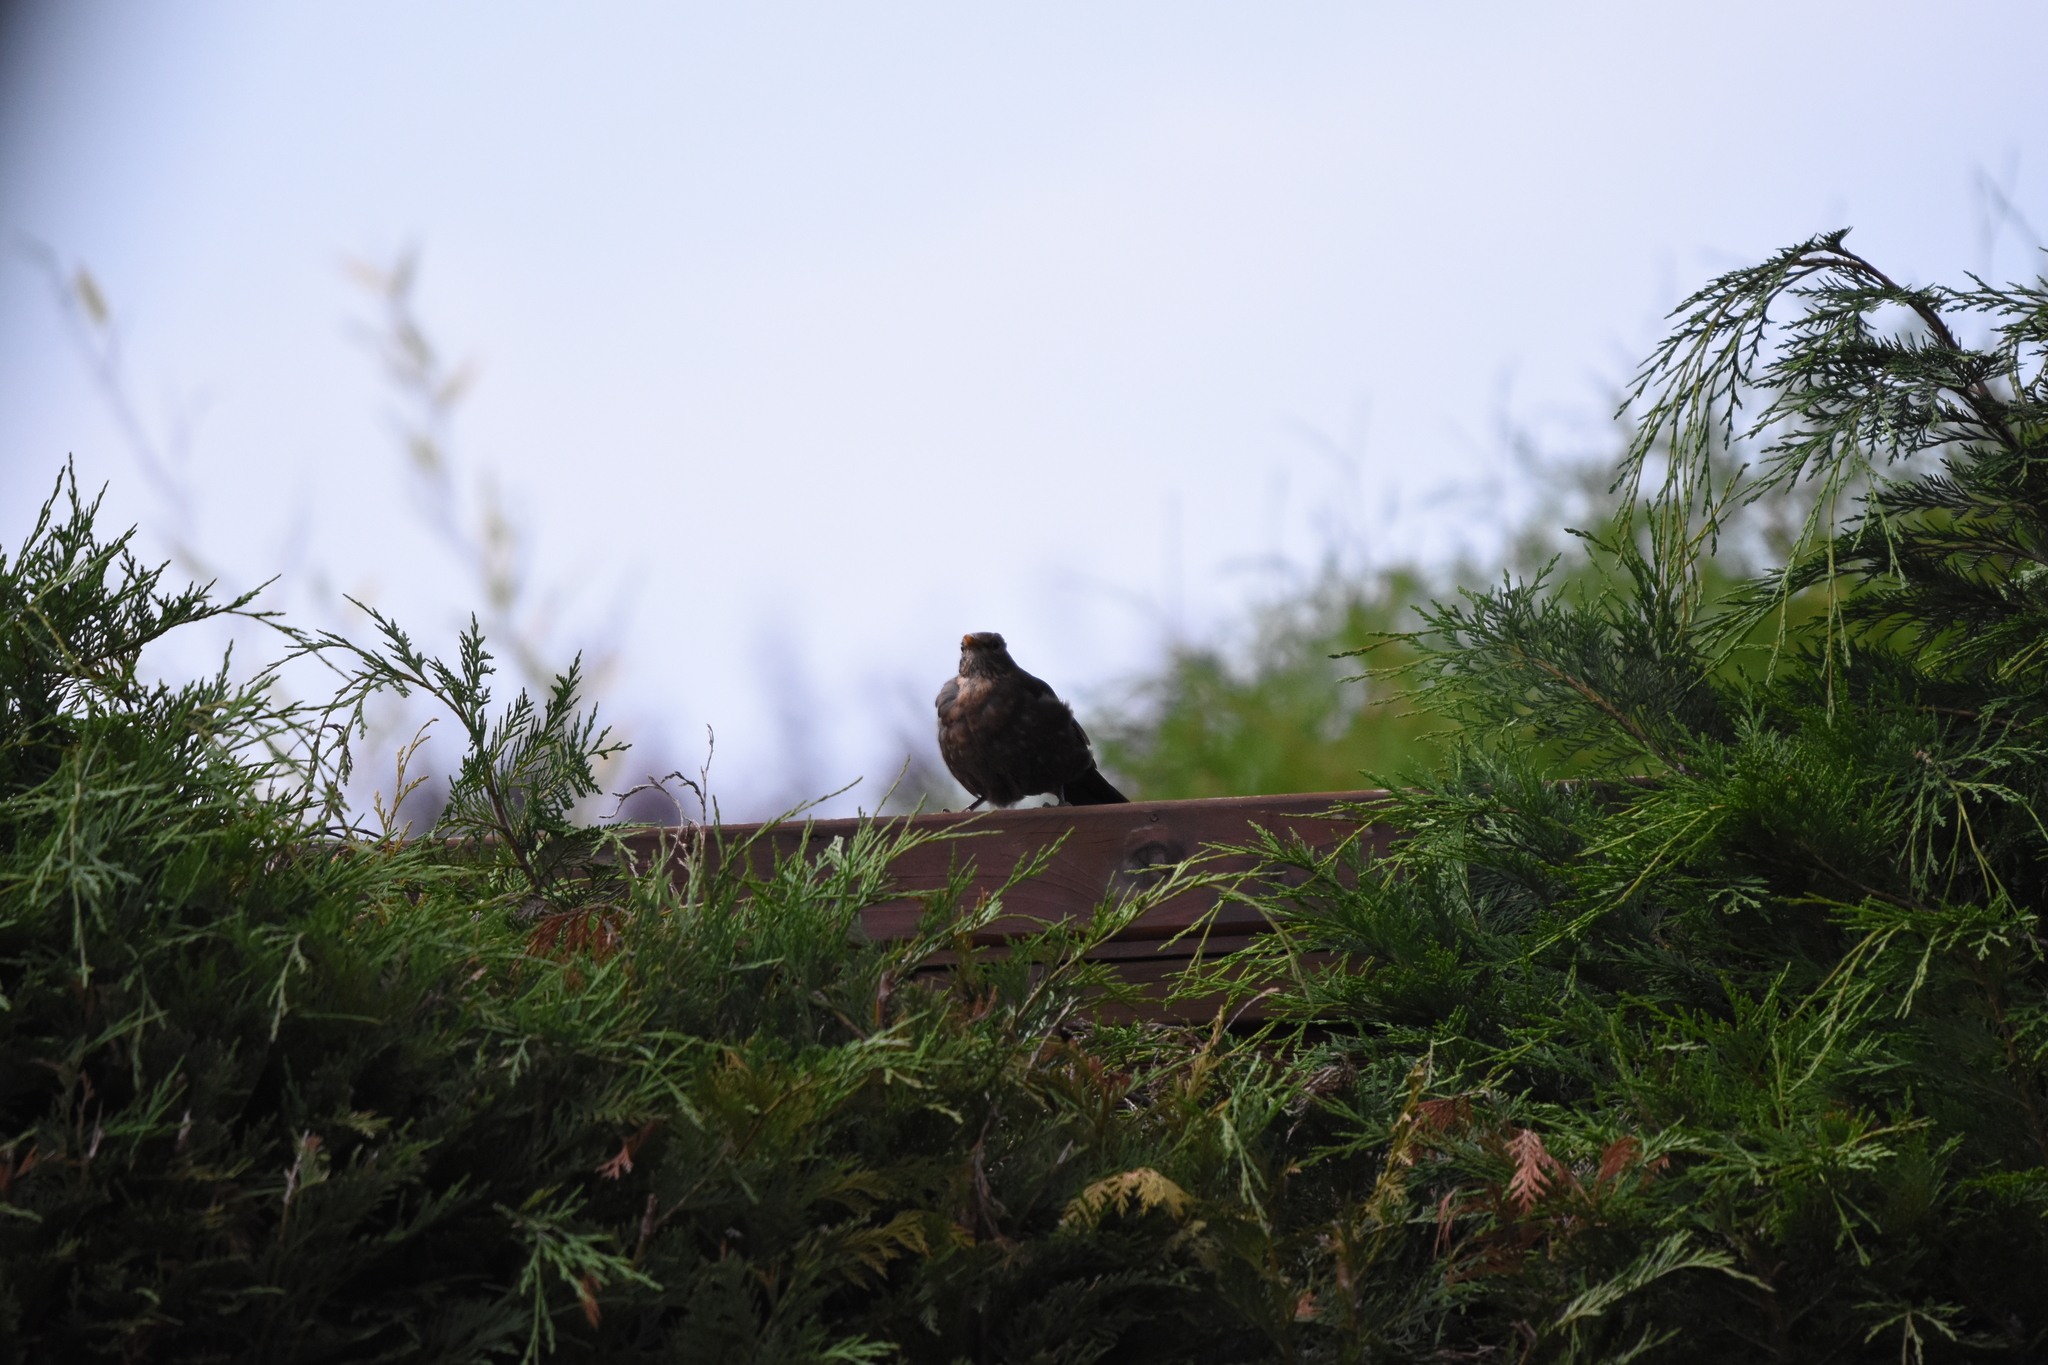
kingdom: Animalia
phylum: Chordata
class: Aves
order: Passeriformes
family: Turdidae
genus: Turdus
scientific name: Turdus merula
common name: Common blackbird
